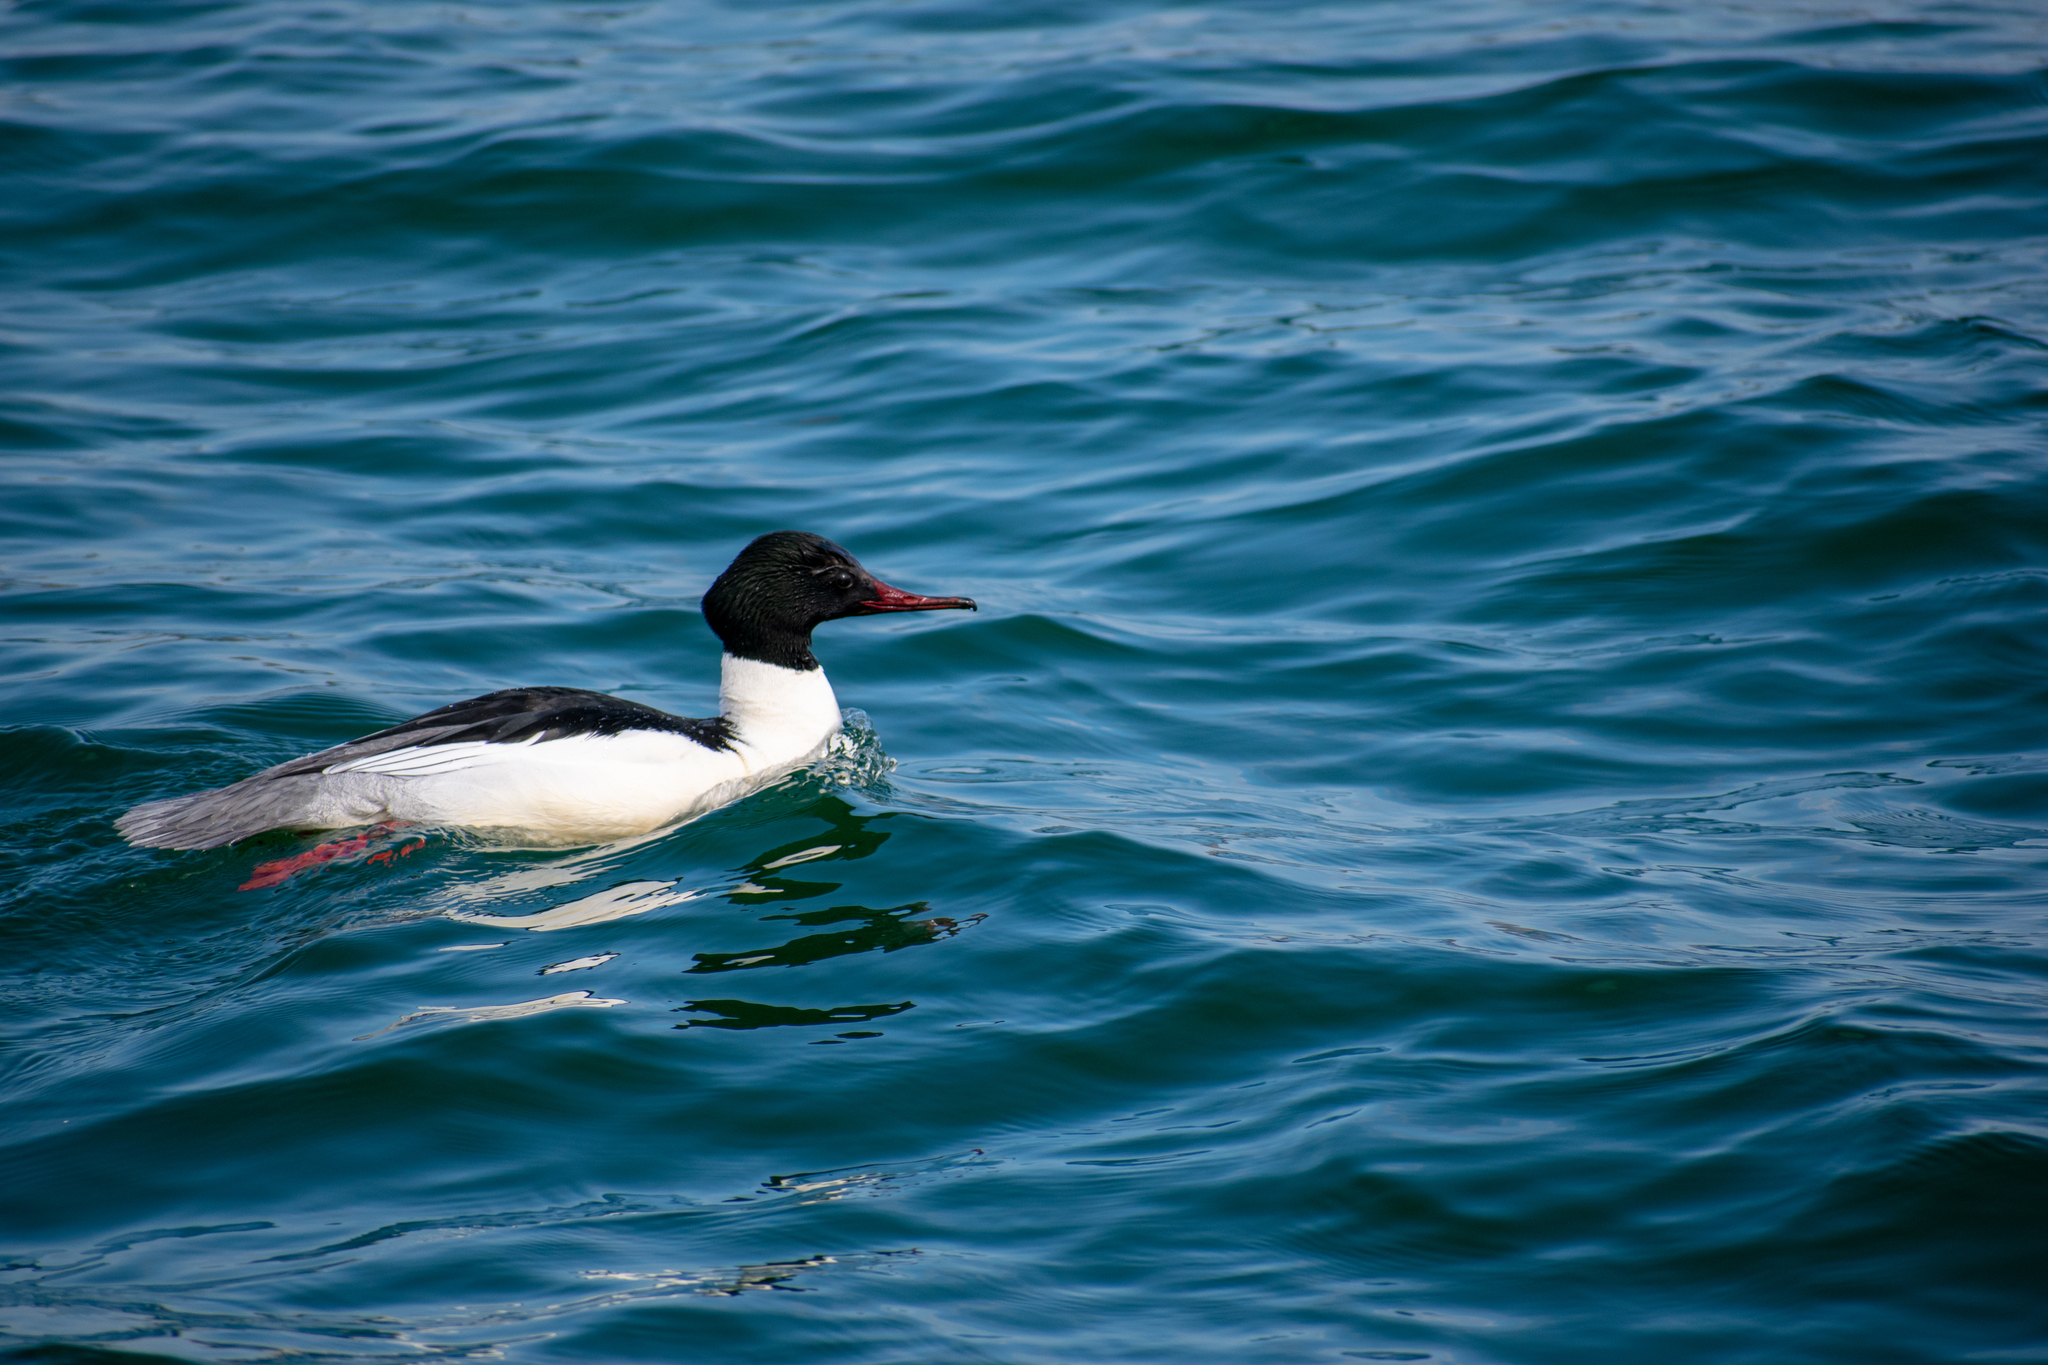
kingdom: Animalia
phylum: Chordata
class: Aves
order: Anseriformes
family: Anatidae
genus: Mergus
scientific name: Mergus merganser
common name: Common merganser
